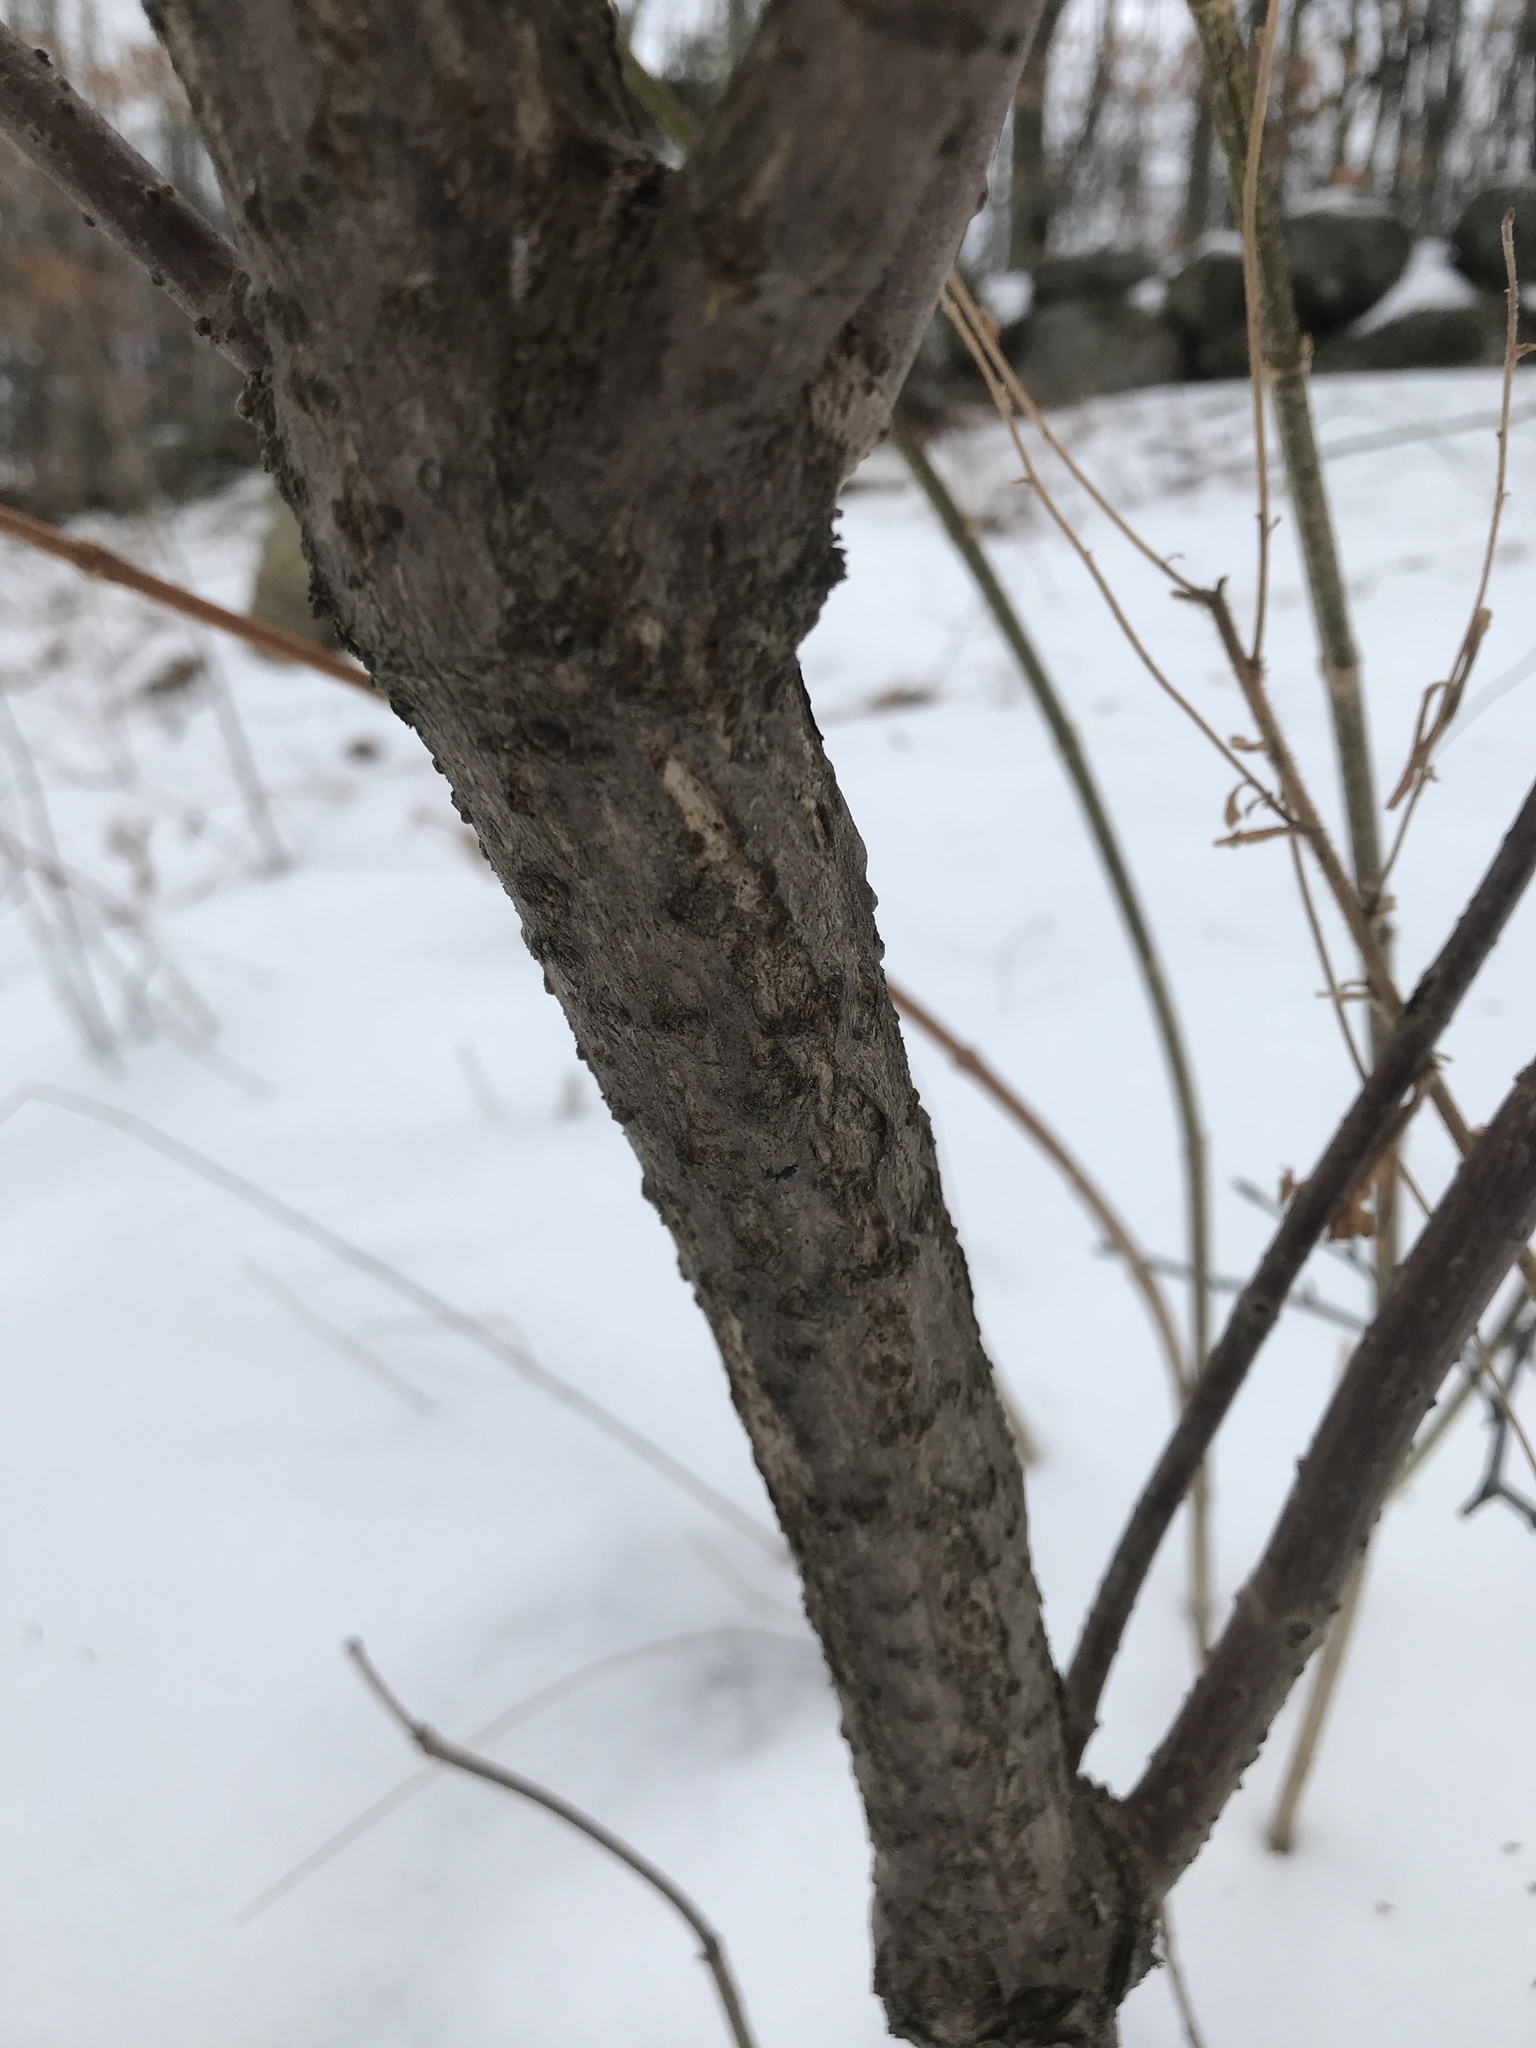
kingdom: Plantae
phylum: Tracheophyta
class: Magnoliopsida
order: Dipsacales
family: Viburnaceae
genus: Sambucus
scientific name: Sambucus racemosa
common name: Red-berried elder
